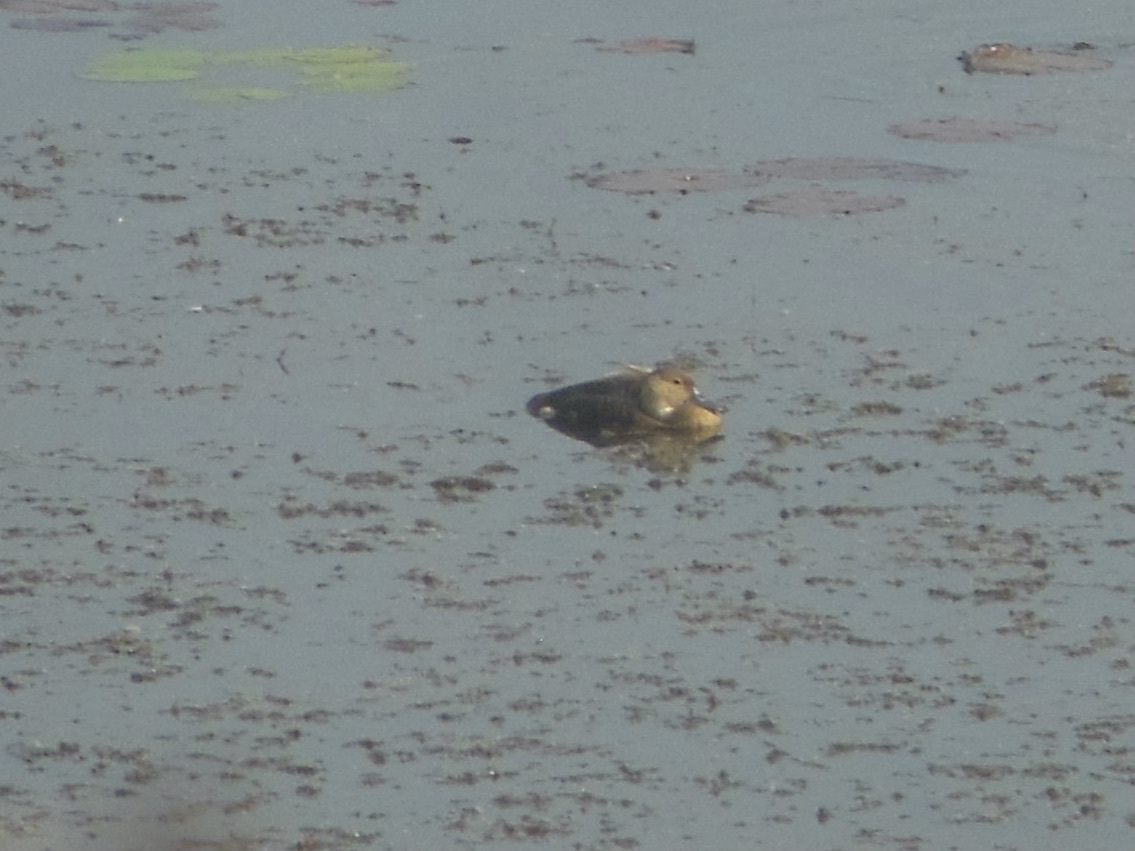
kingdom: Animalia
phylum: Chordata
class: Aves
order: Anseriformes
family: Anatidae
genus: Dendrocygna
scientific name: Dendrocygna javanica
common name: Lesser whistling-duck
